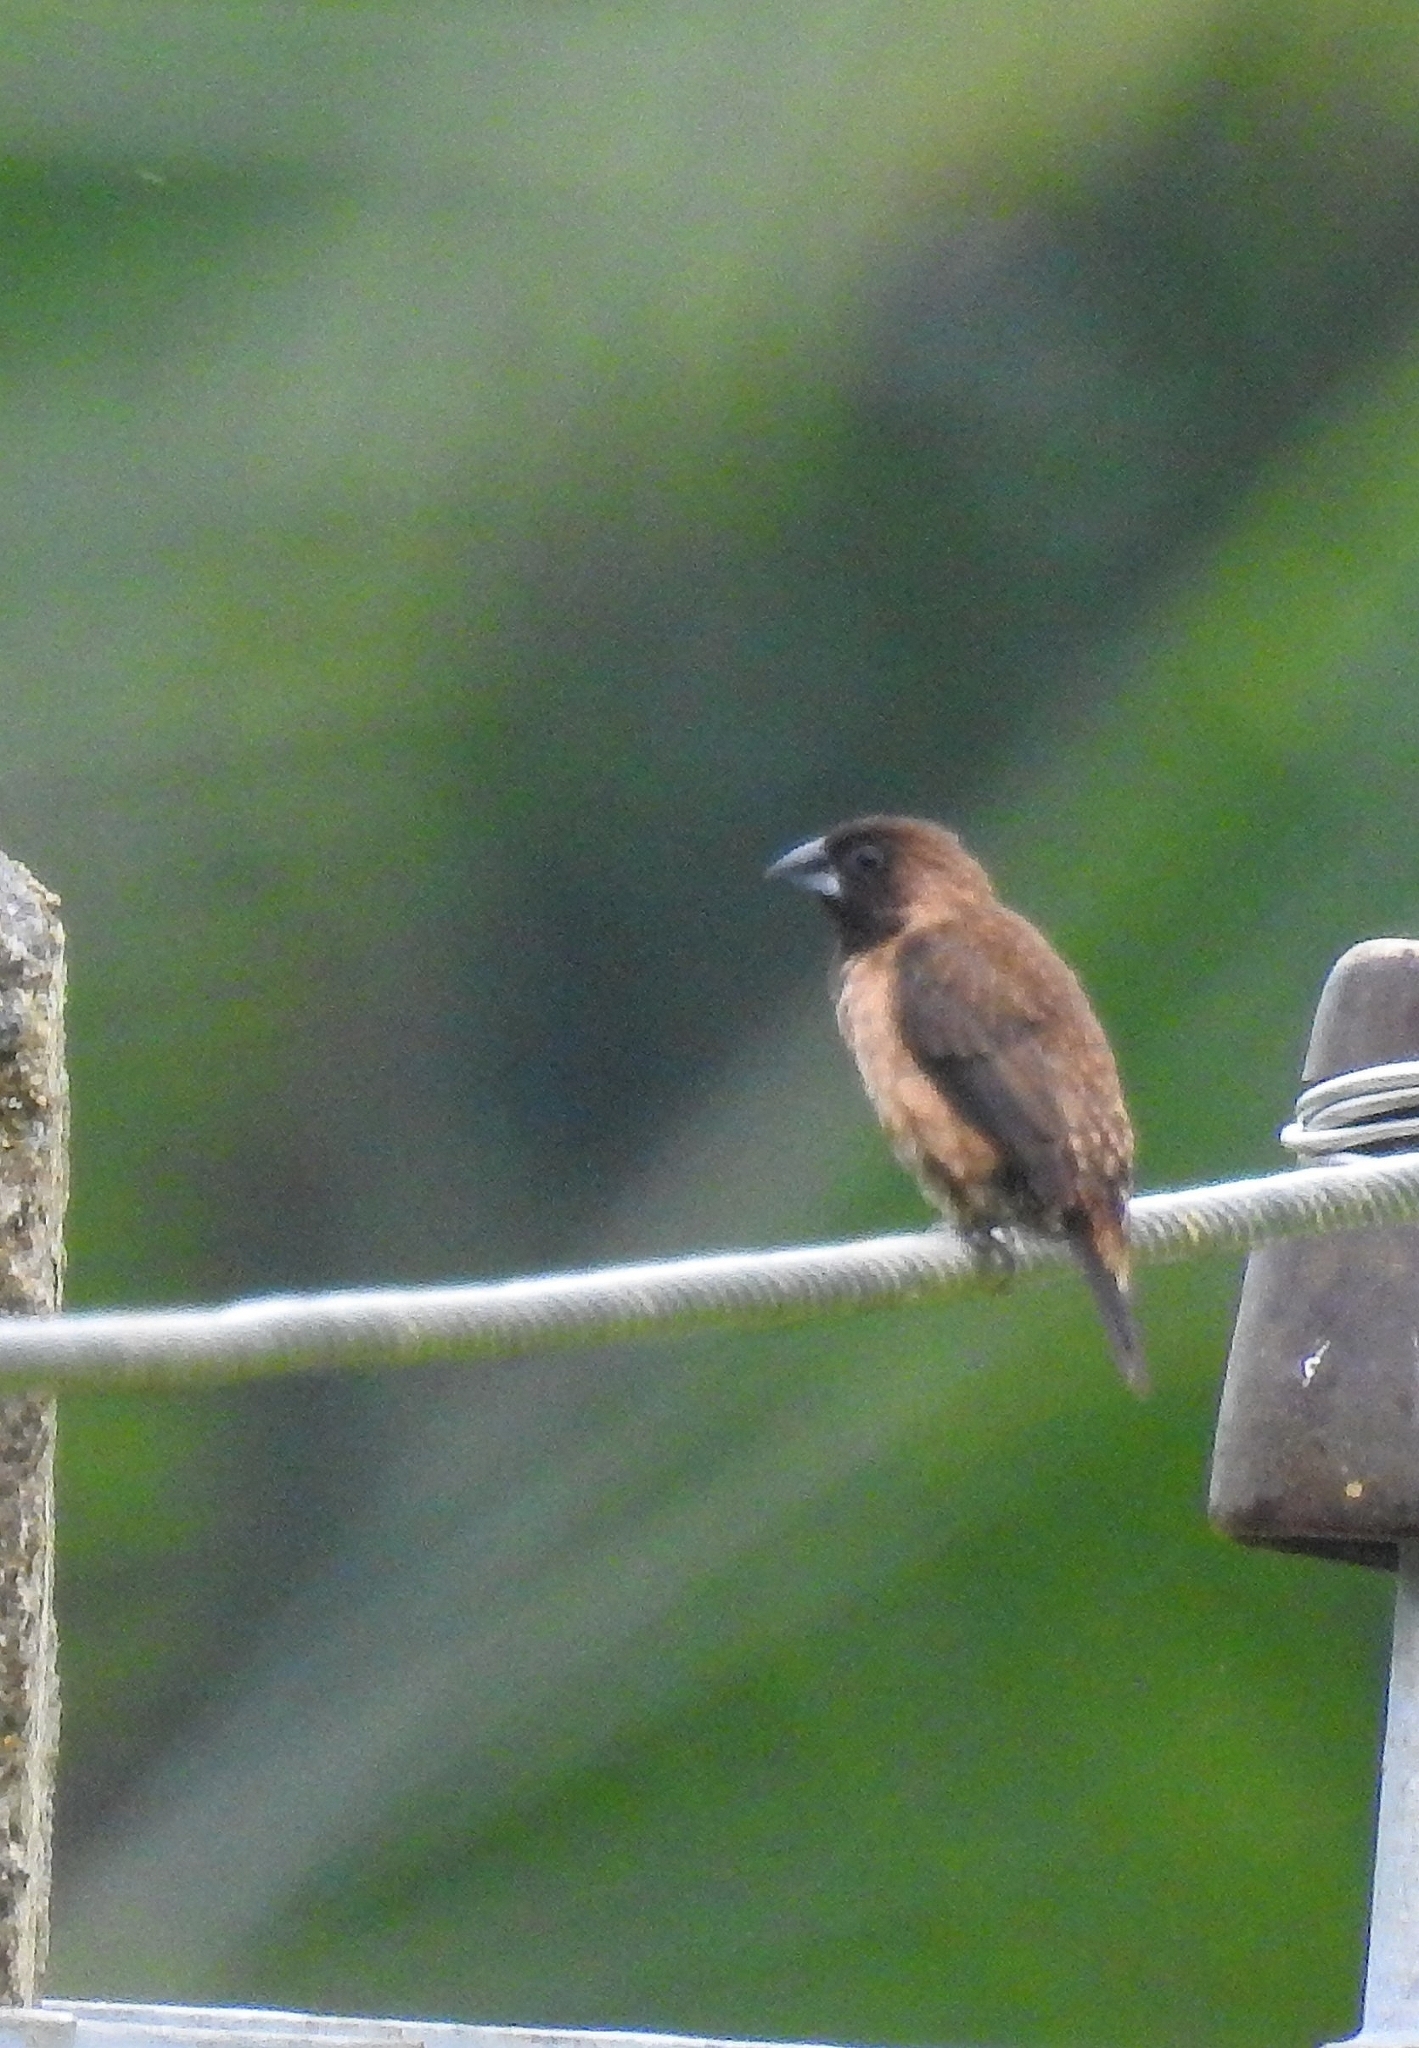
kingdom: Animalia
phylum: Chordata
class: Aves
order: Passeriformes
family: Estrildidae
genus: Lonchura
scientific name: Lonchura kelaarti
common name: Black-throated munia
